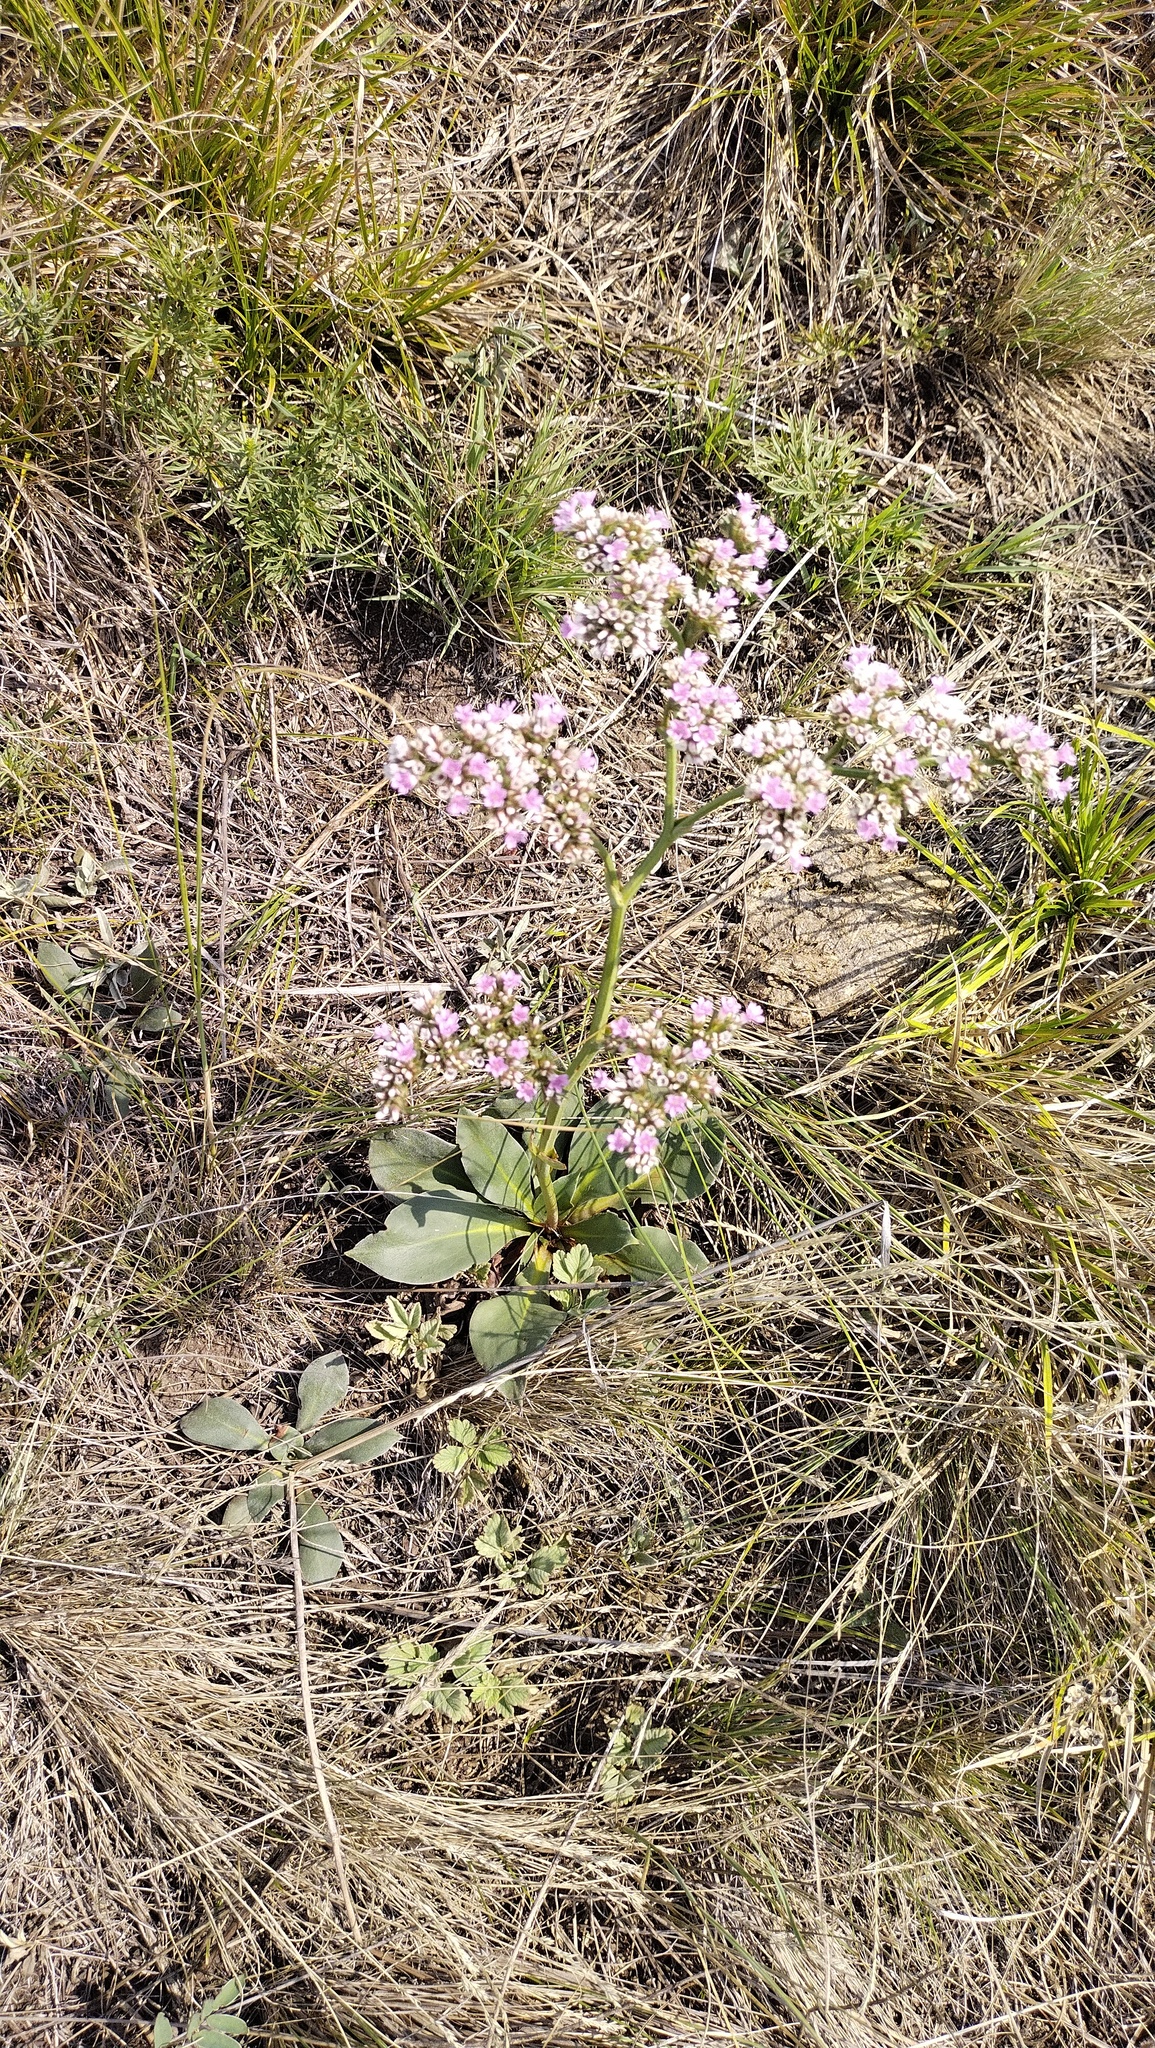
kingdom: Plantae
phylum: Tracheophyta
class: Magnoliopsida
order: Caryophyllales
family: Plumbaginaceae
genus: Goniolimon
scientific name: Goniolimon speciosum
